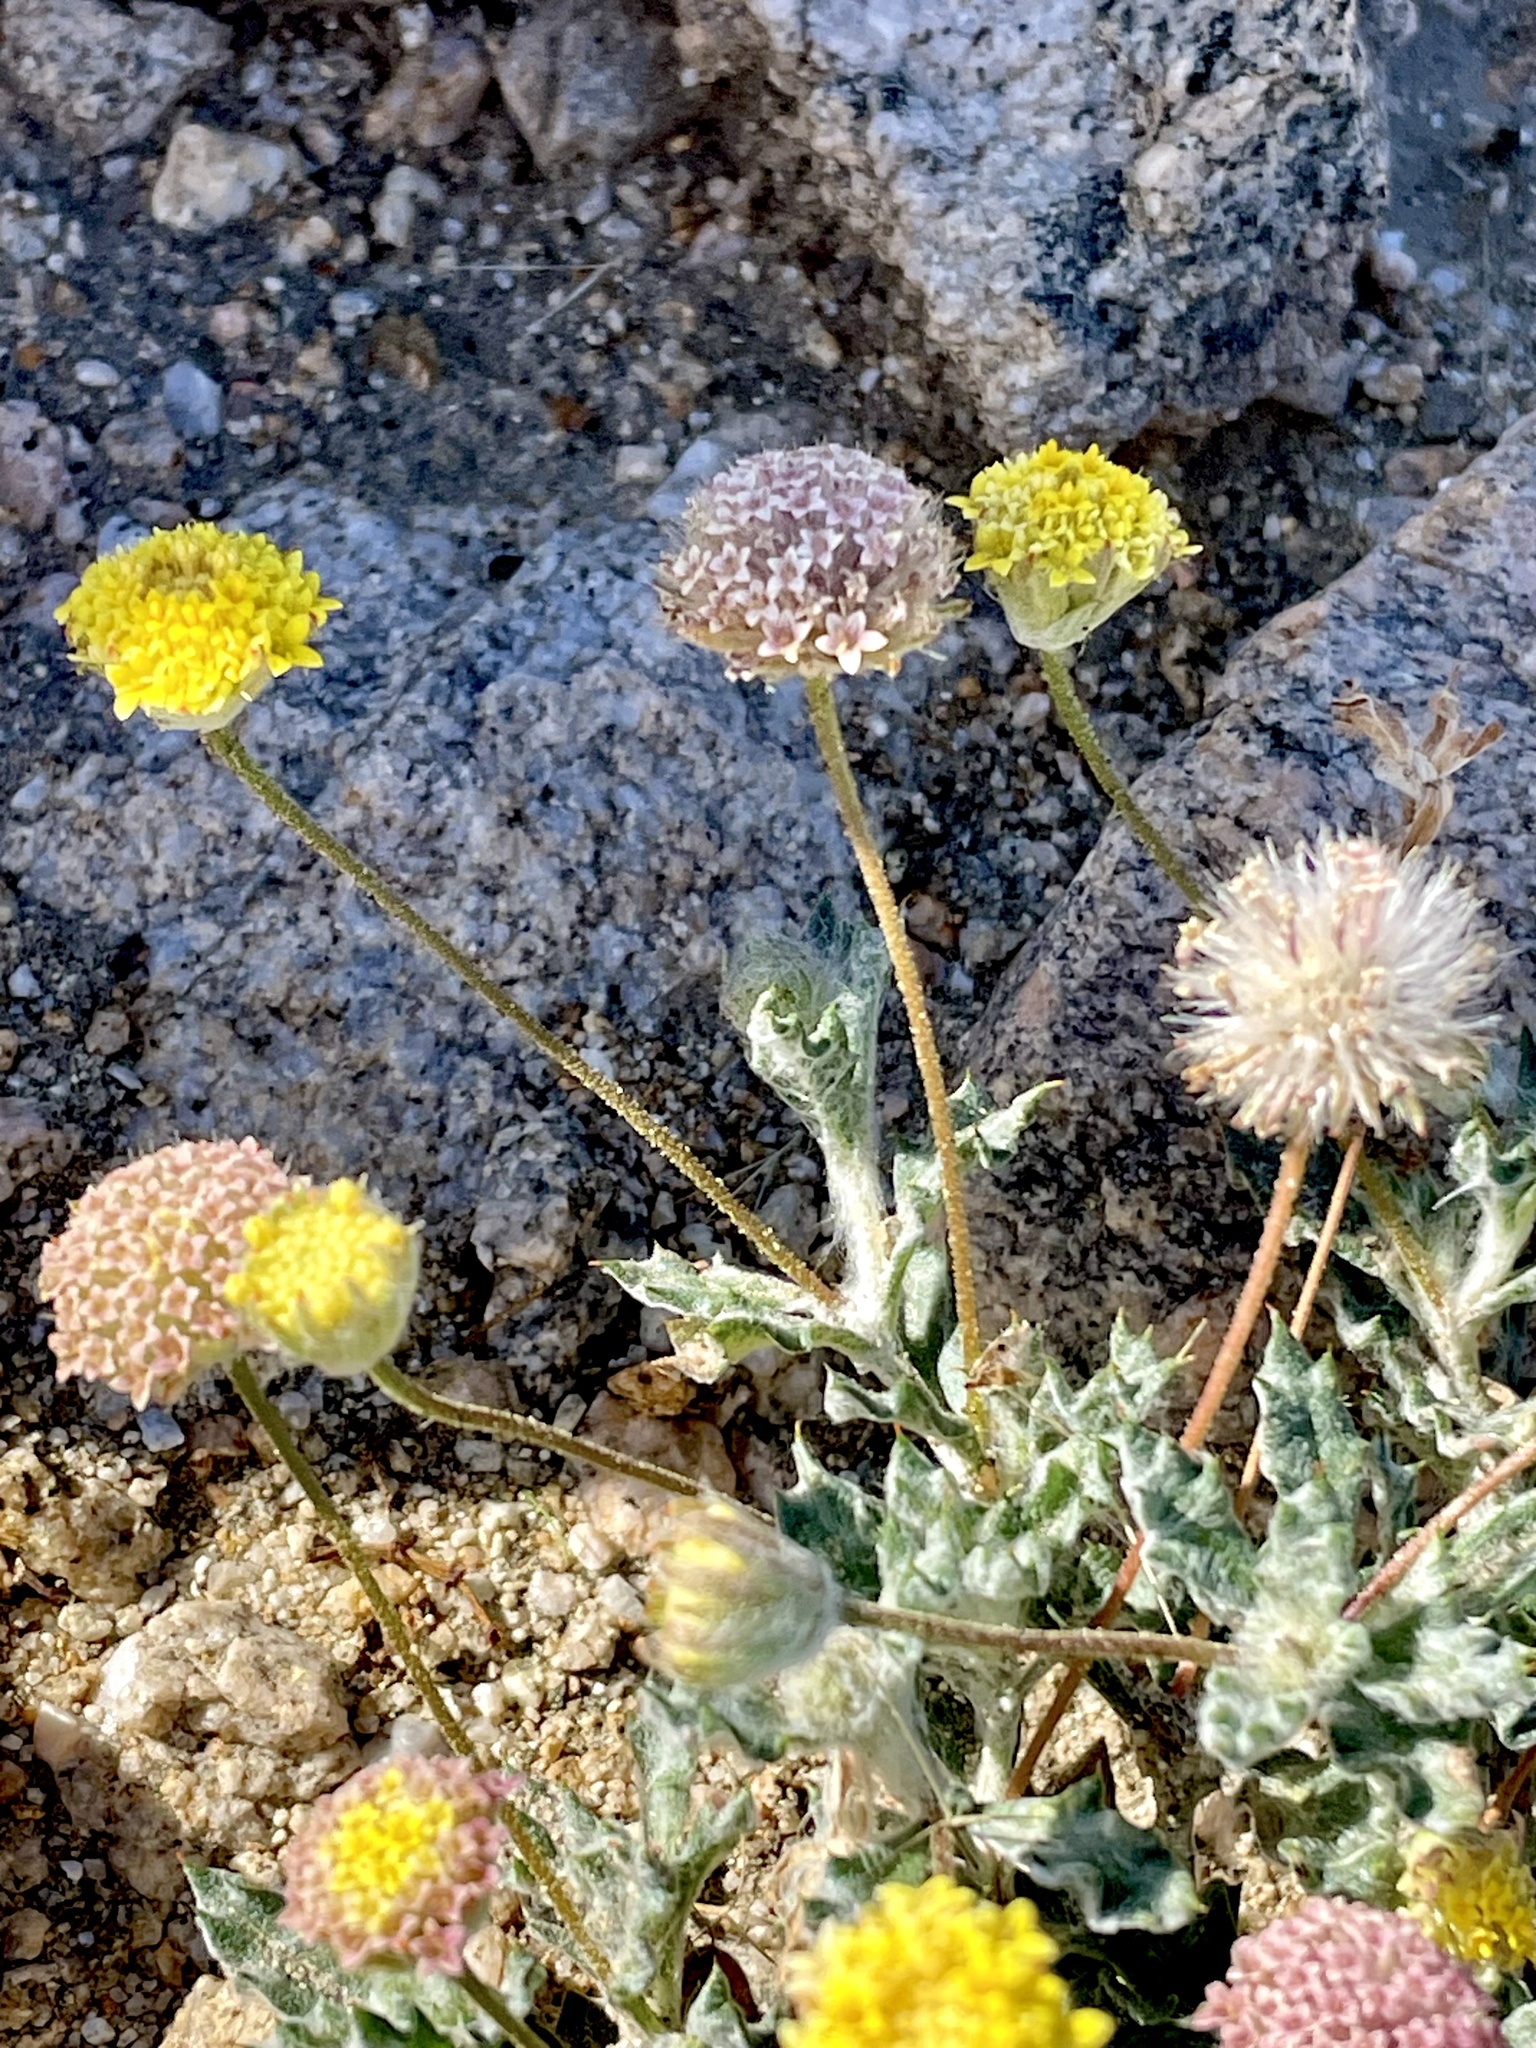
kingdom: Plantae
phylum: Tracheophyta
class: Magnoliopsida
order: Asterales
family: Asteraceae
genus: Trichoptilium
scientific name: Trichoptilium incisum
